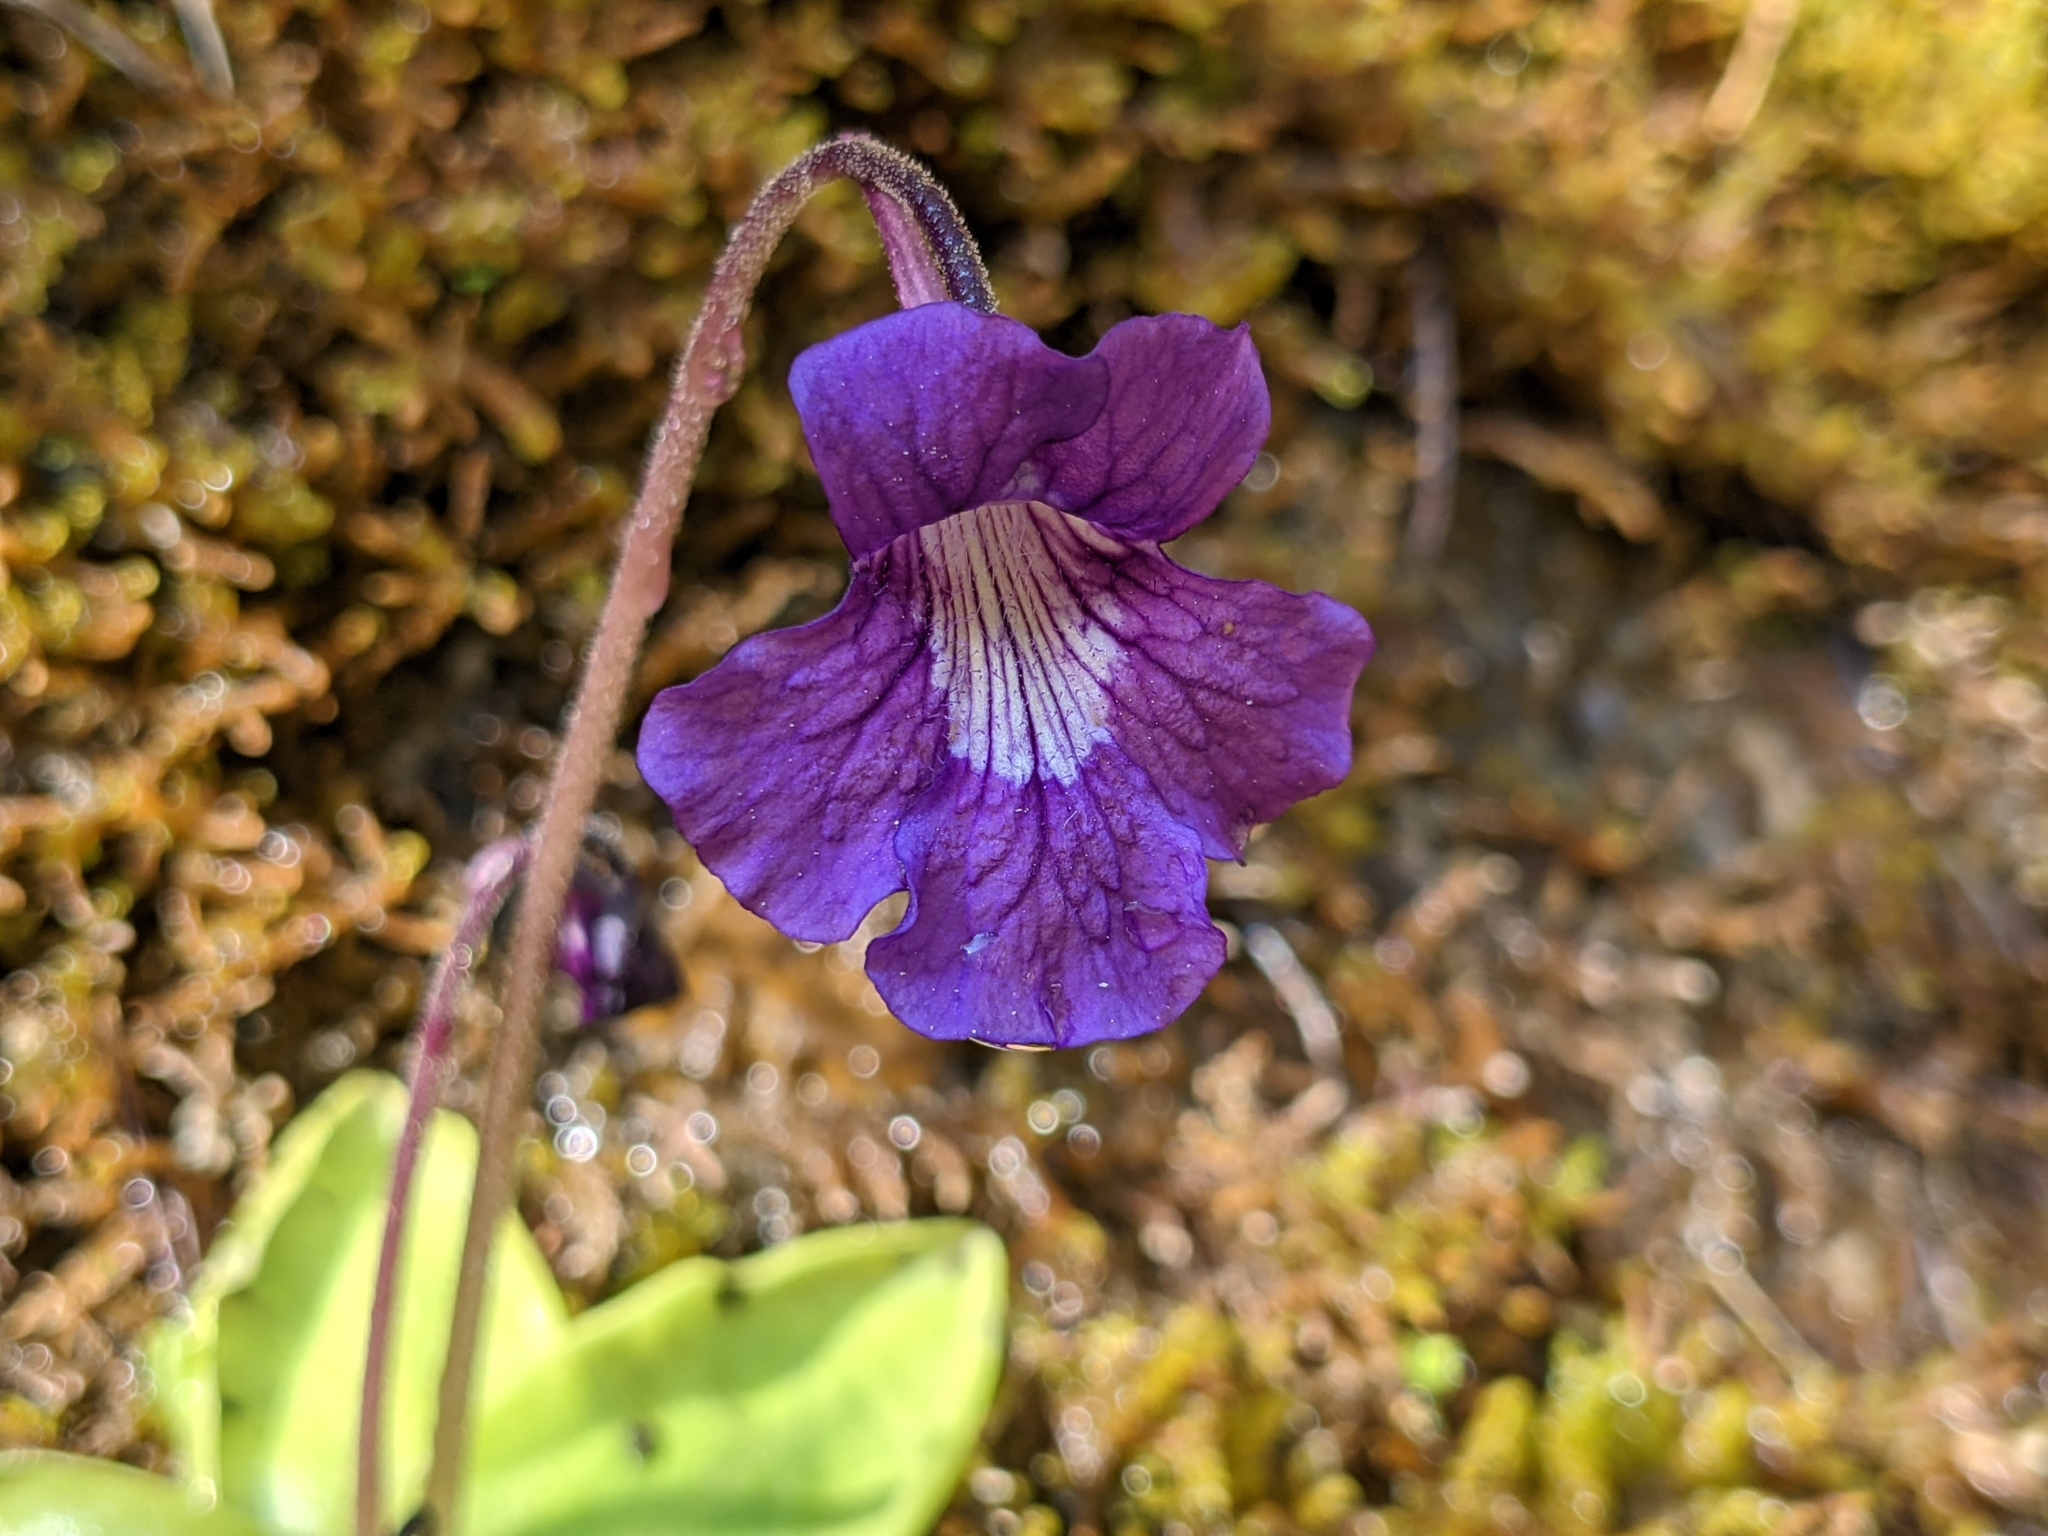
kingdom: Plantae
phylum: Tracheophyta
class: Magnoliopsida
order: Lamiales
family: Lentibulariaceae
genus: Pinguicula
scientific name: Pinguicula grandiflora
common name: Large-flowered butterwort
